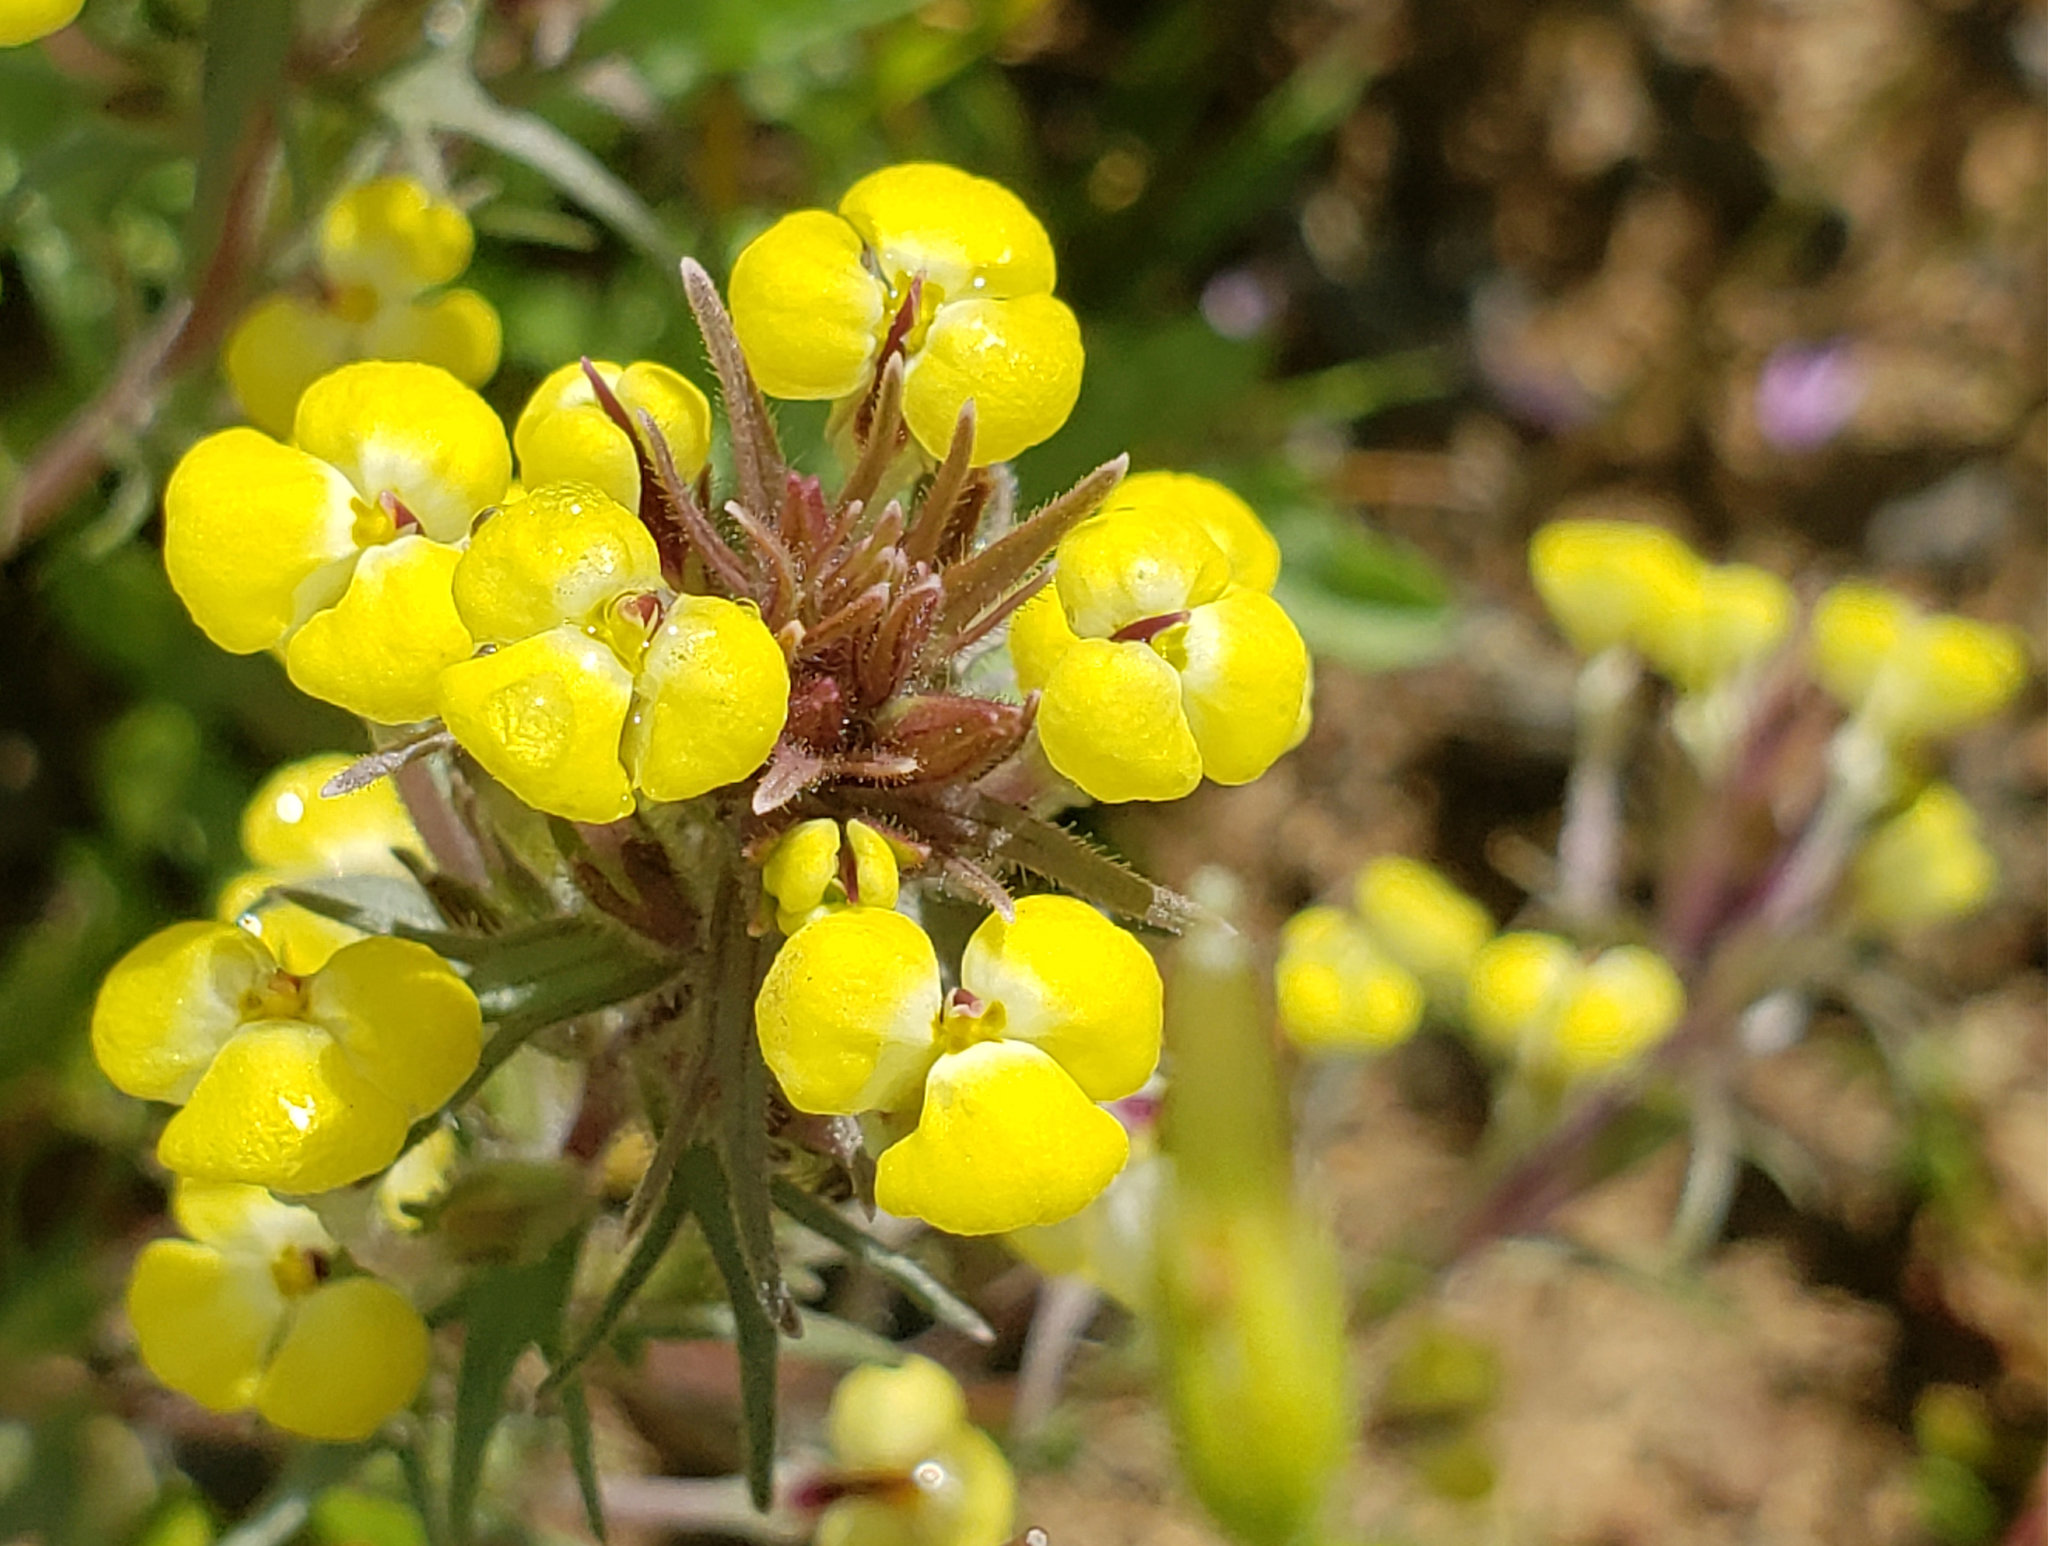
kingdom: Plantae
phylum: Tracheophyta
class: Magnoliopsida
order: Lamiales
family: Orobanchaceae
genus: Triphysaria
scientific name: Triphysaria eriantha
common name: Johnny-tuck
